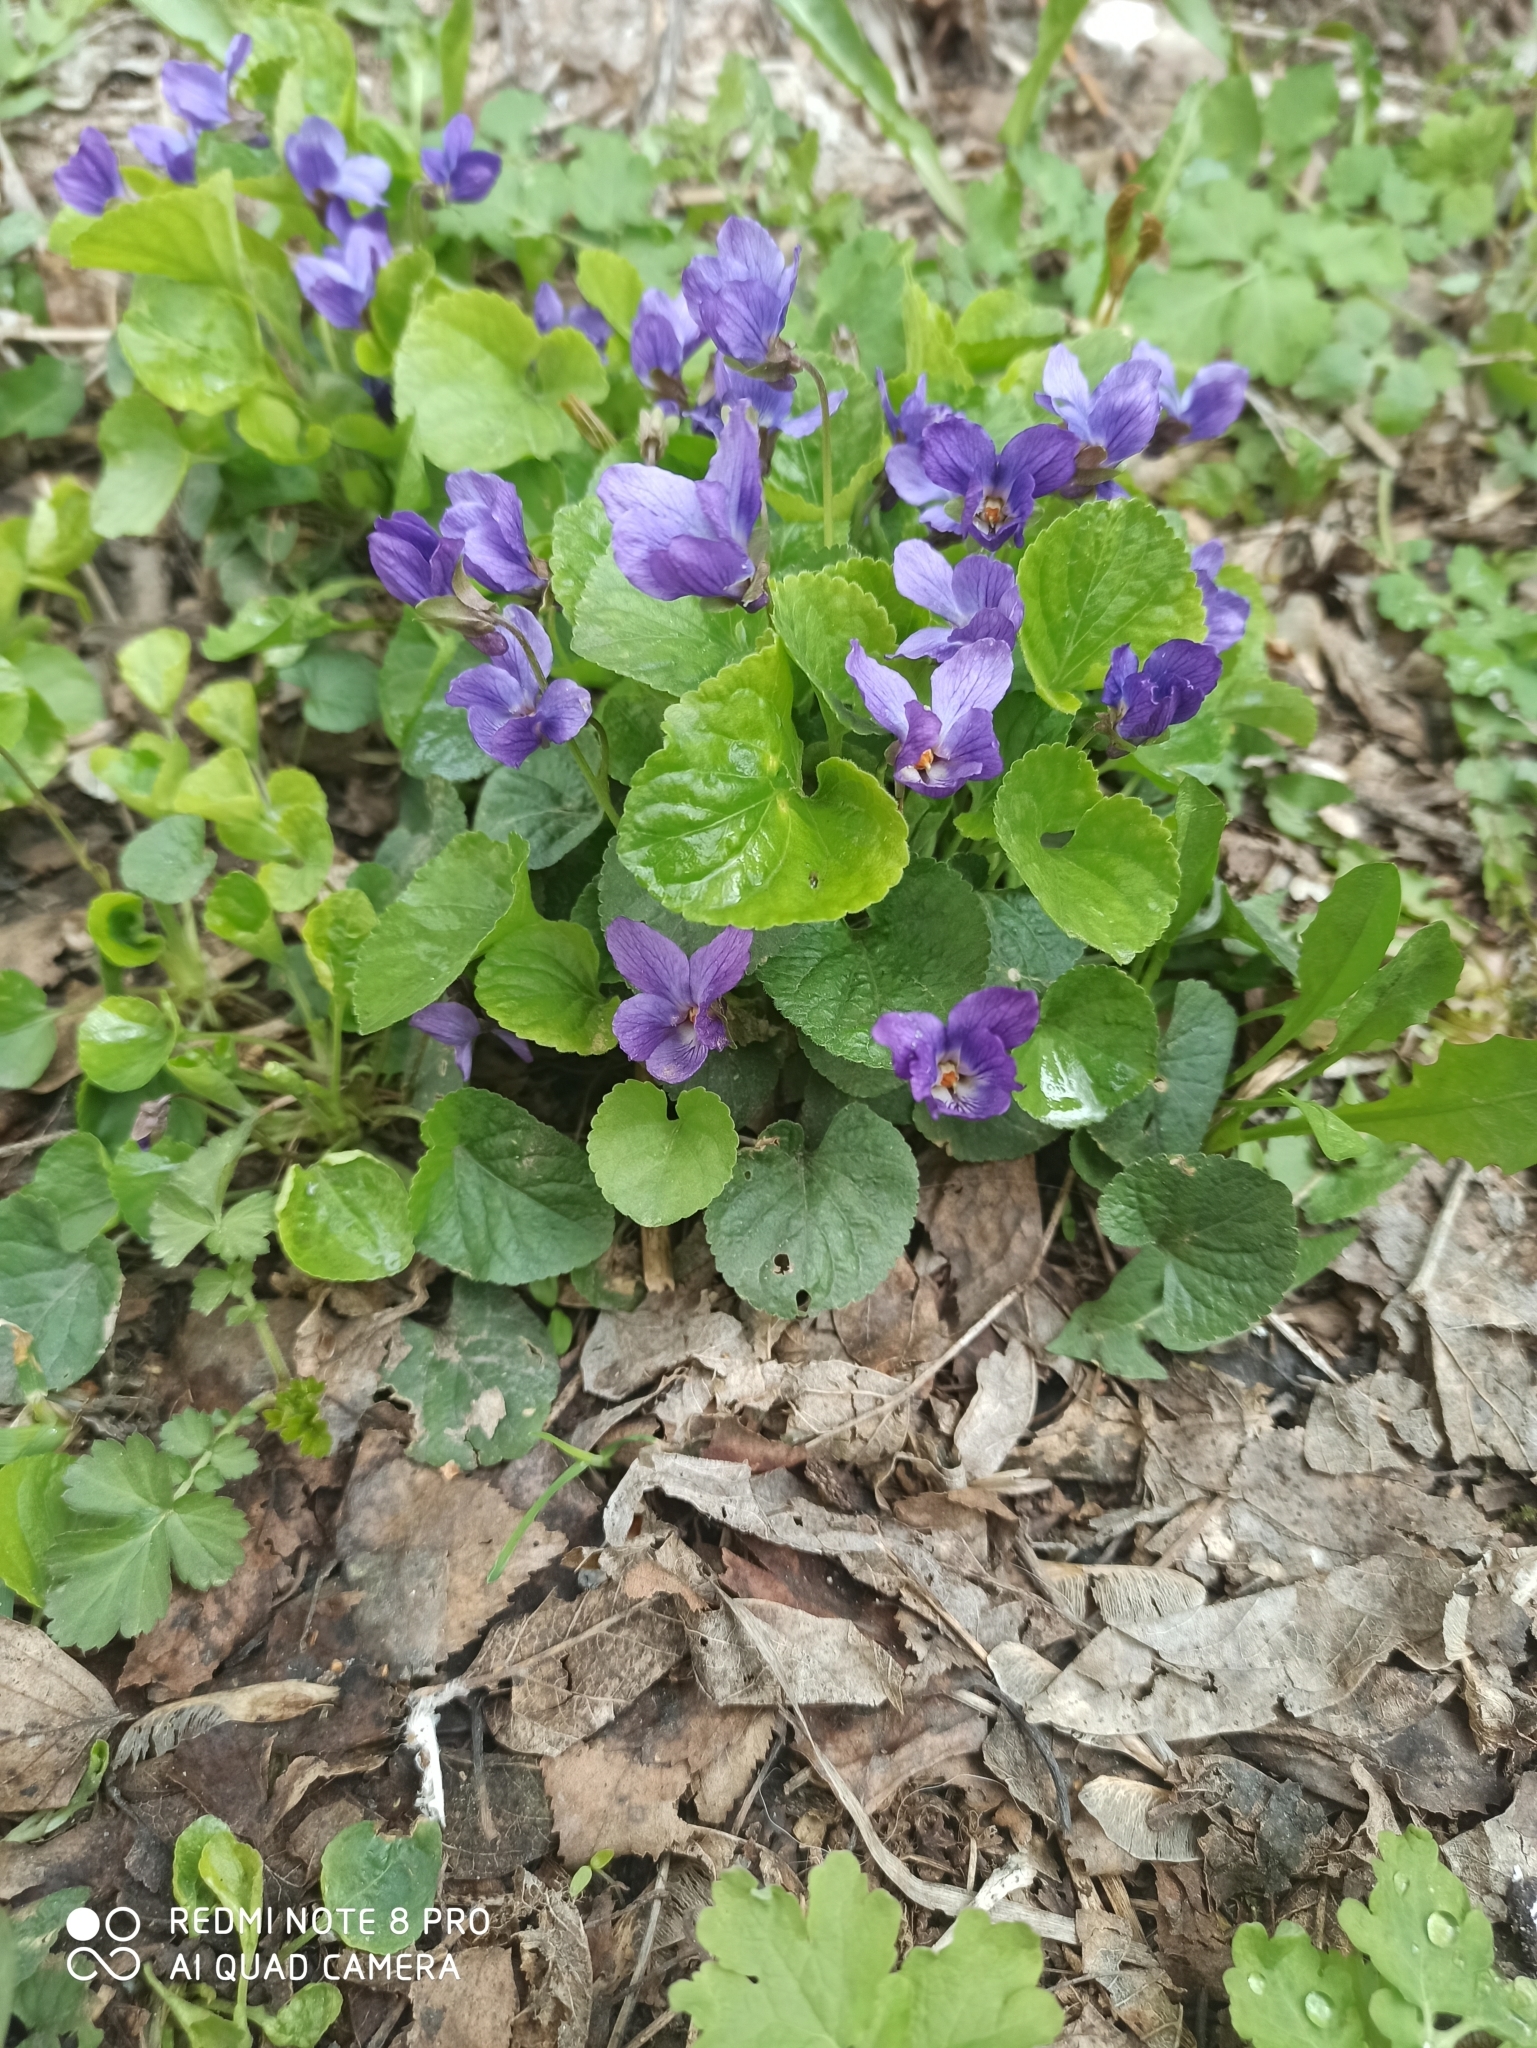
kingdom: Plantae
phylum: Tracheophyta
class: Magnoliopsida
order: Malpighiales
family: Violaceae
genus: Viola
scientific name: Viola odorata
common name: Sweet violet
